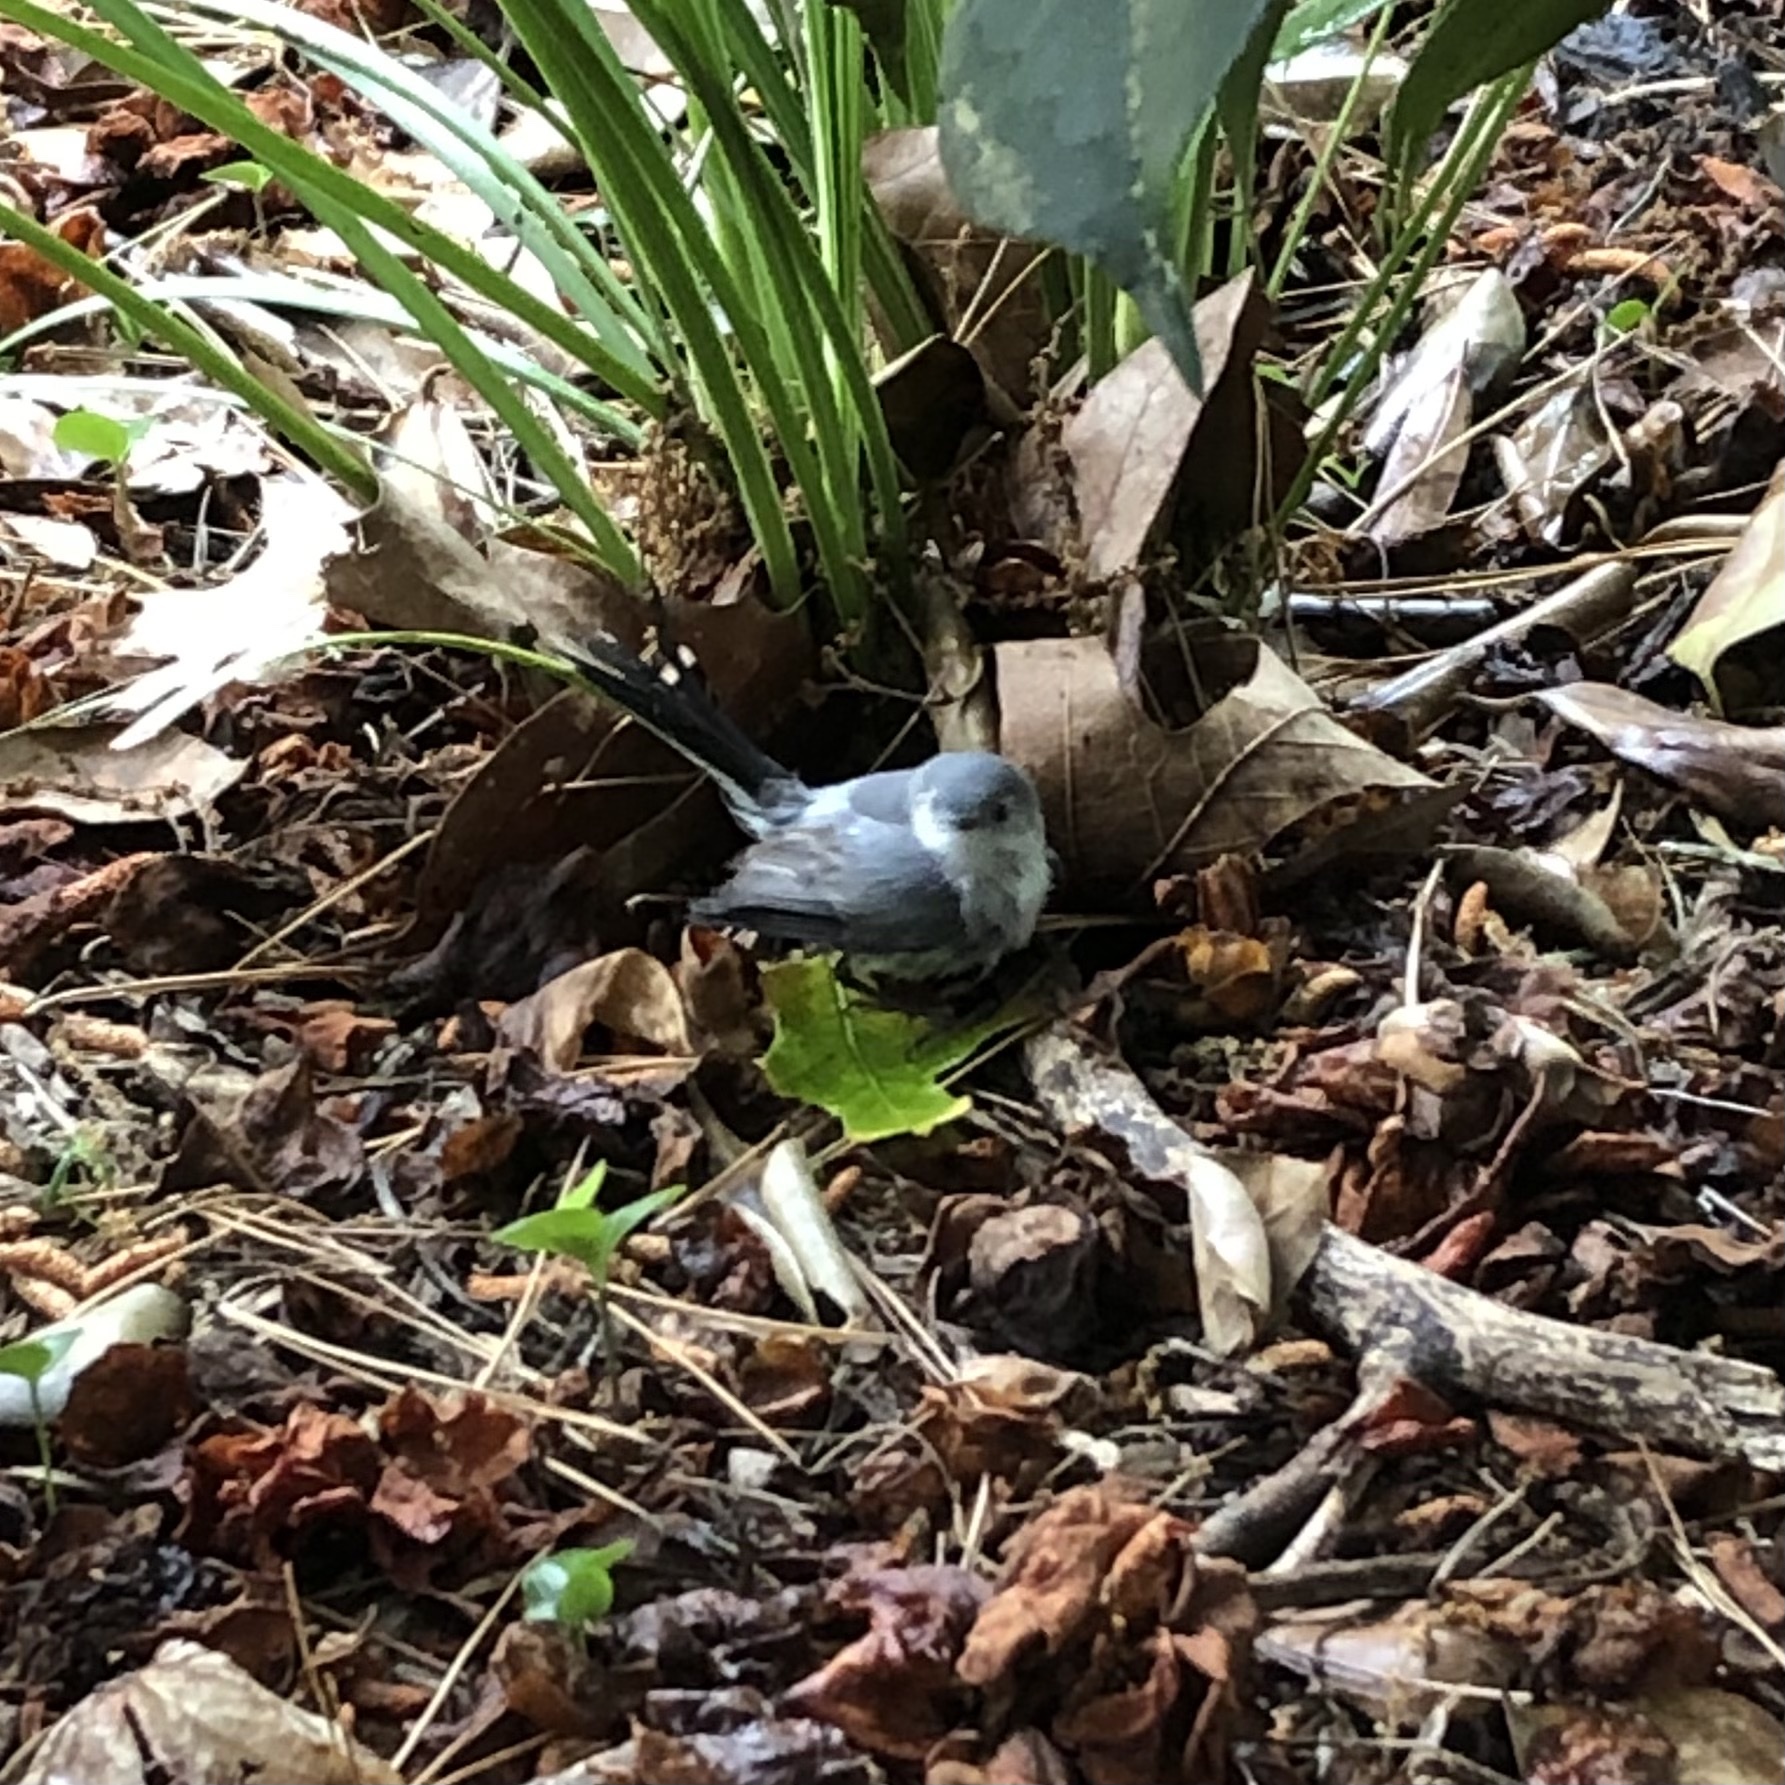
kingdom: Animalia
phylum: Chordata
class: Aves
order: Passeriformes
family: Polioptilidae
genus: Polioptila
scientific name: Polioptila caerulea
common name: Blue-gray gnatcatcher
